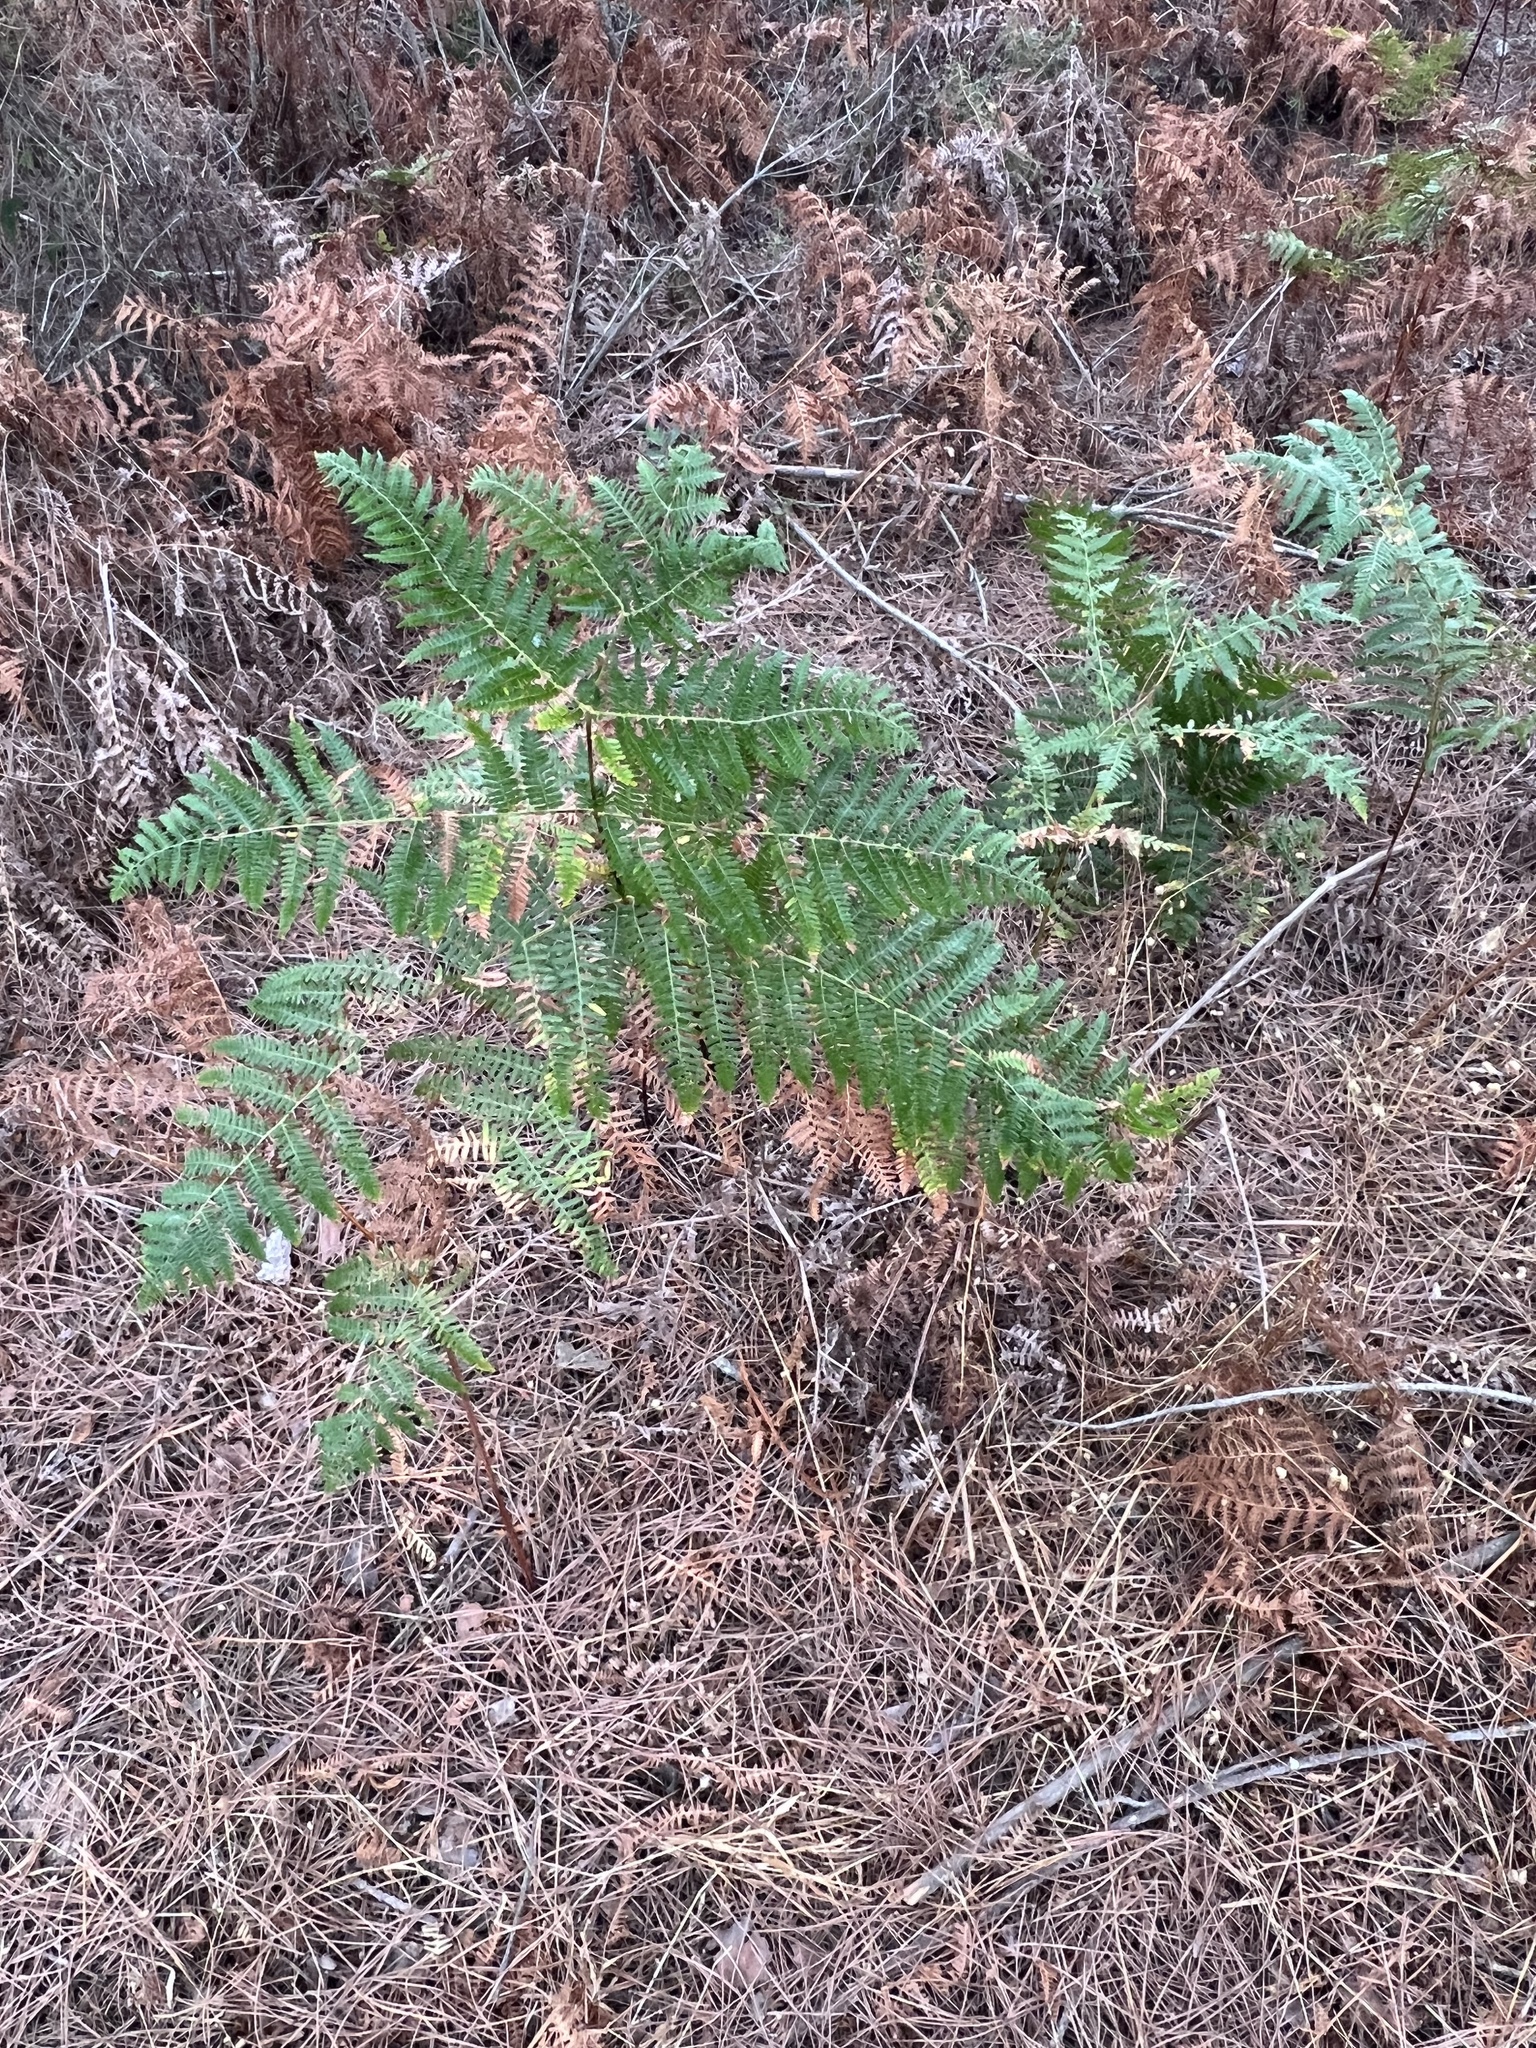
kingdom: Plantae
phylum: Tracheophyta
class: Polypodiopsida
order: Polypodiales
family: Dennstaedtiaceae
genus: Pteridium
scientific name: Pteridium aquilinum
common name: Bracken
